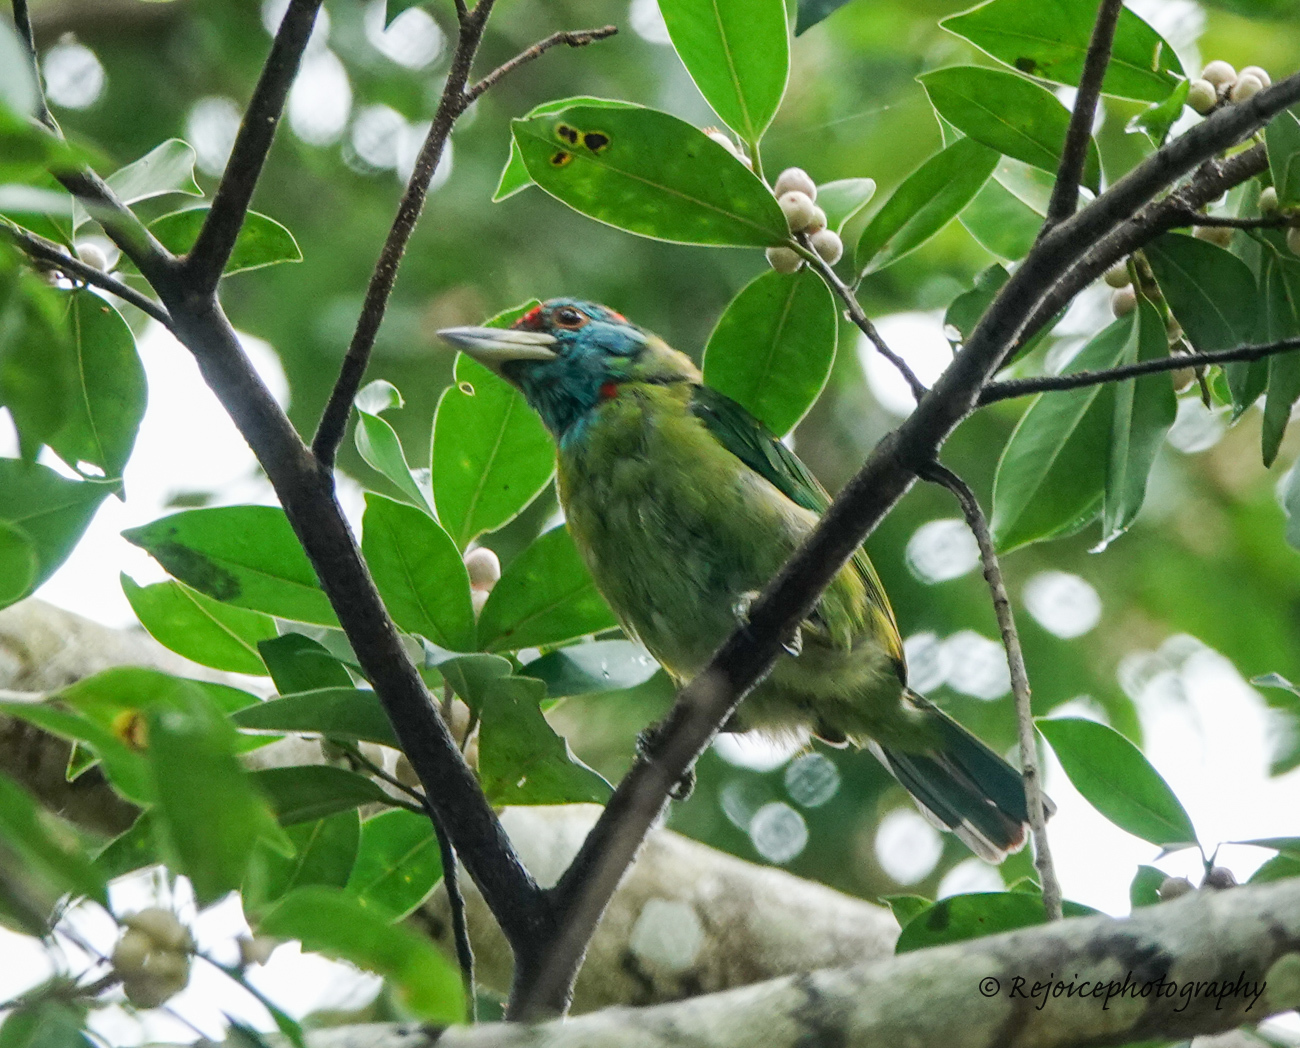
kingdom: Animalia
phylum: Chordata
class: Aves
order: Piciformes
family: Megalaimidae
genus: Psilopogon
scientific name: Psilopogon asiaticus
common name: Blue-throated barbet
